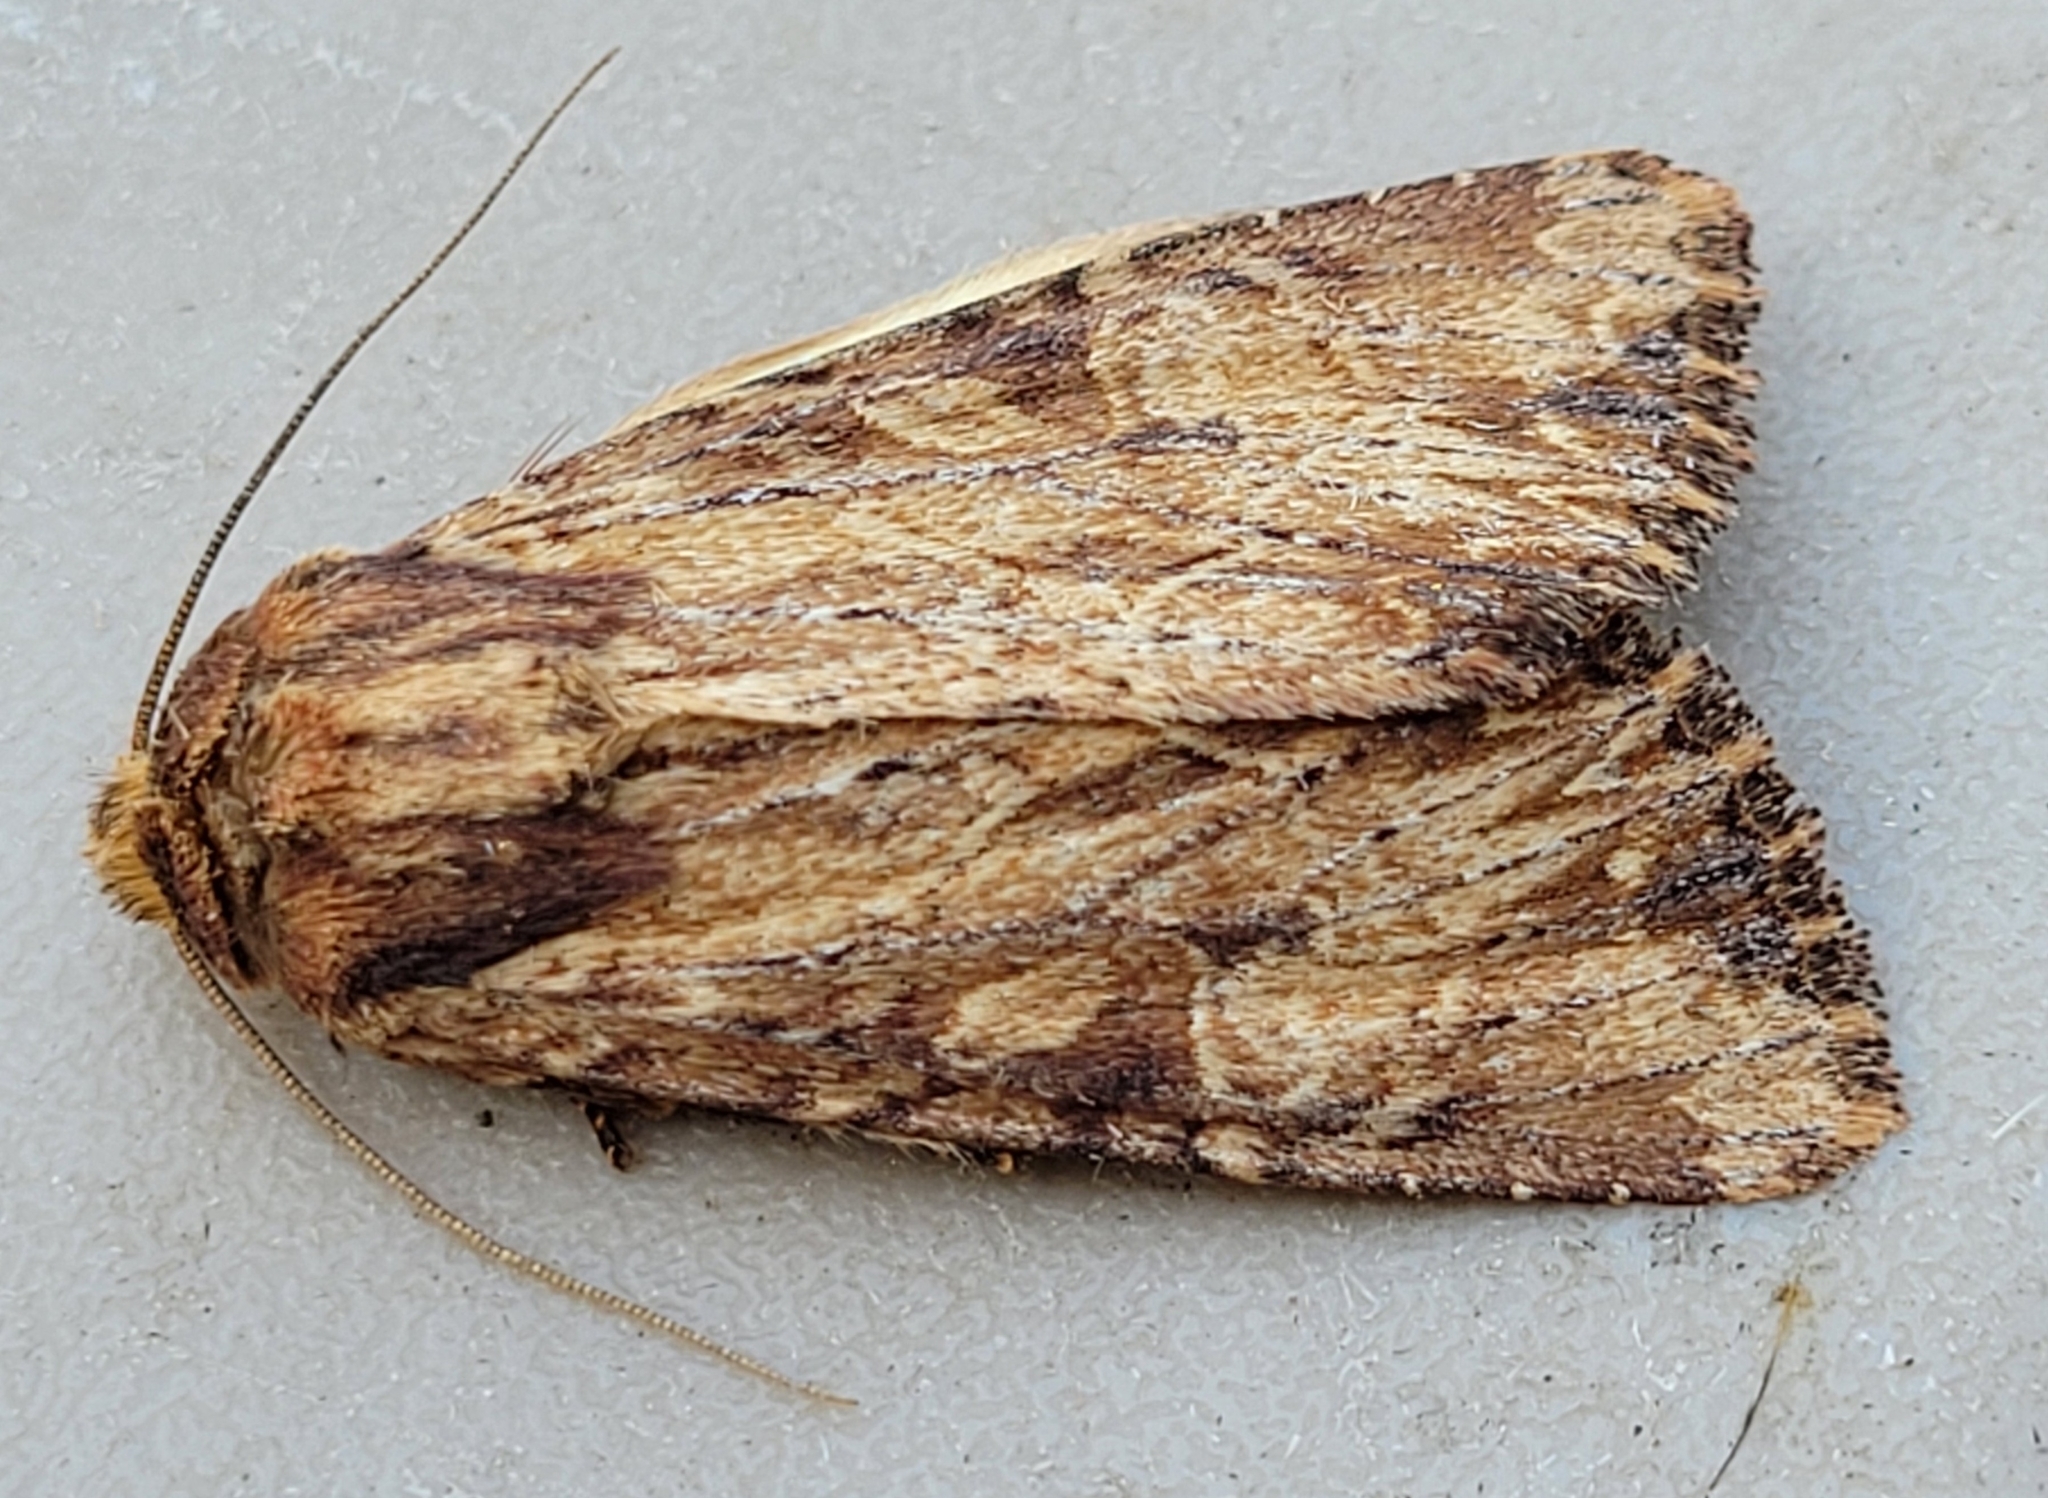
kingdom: Animalia
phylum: Arthropoda
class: Insecta
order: Lepidoptera
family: Noctuidae
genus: Apamea
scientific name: Apamea lignicolora
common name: Wood-colored apamea moth
